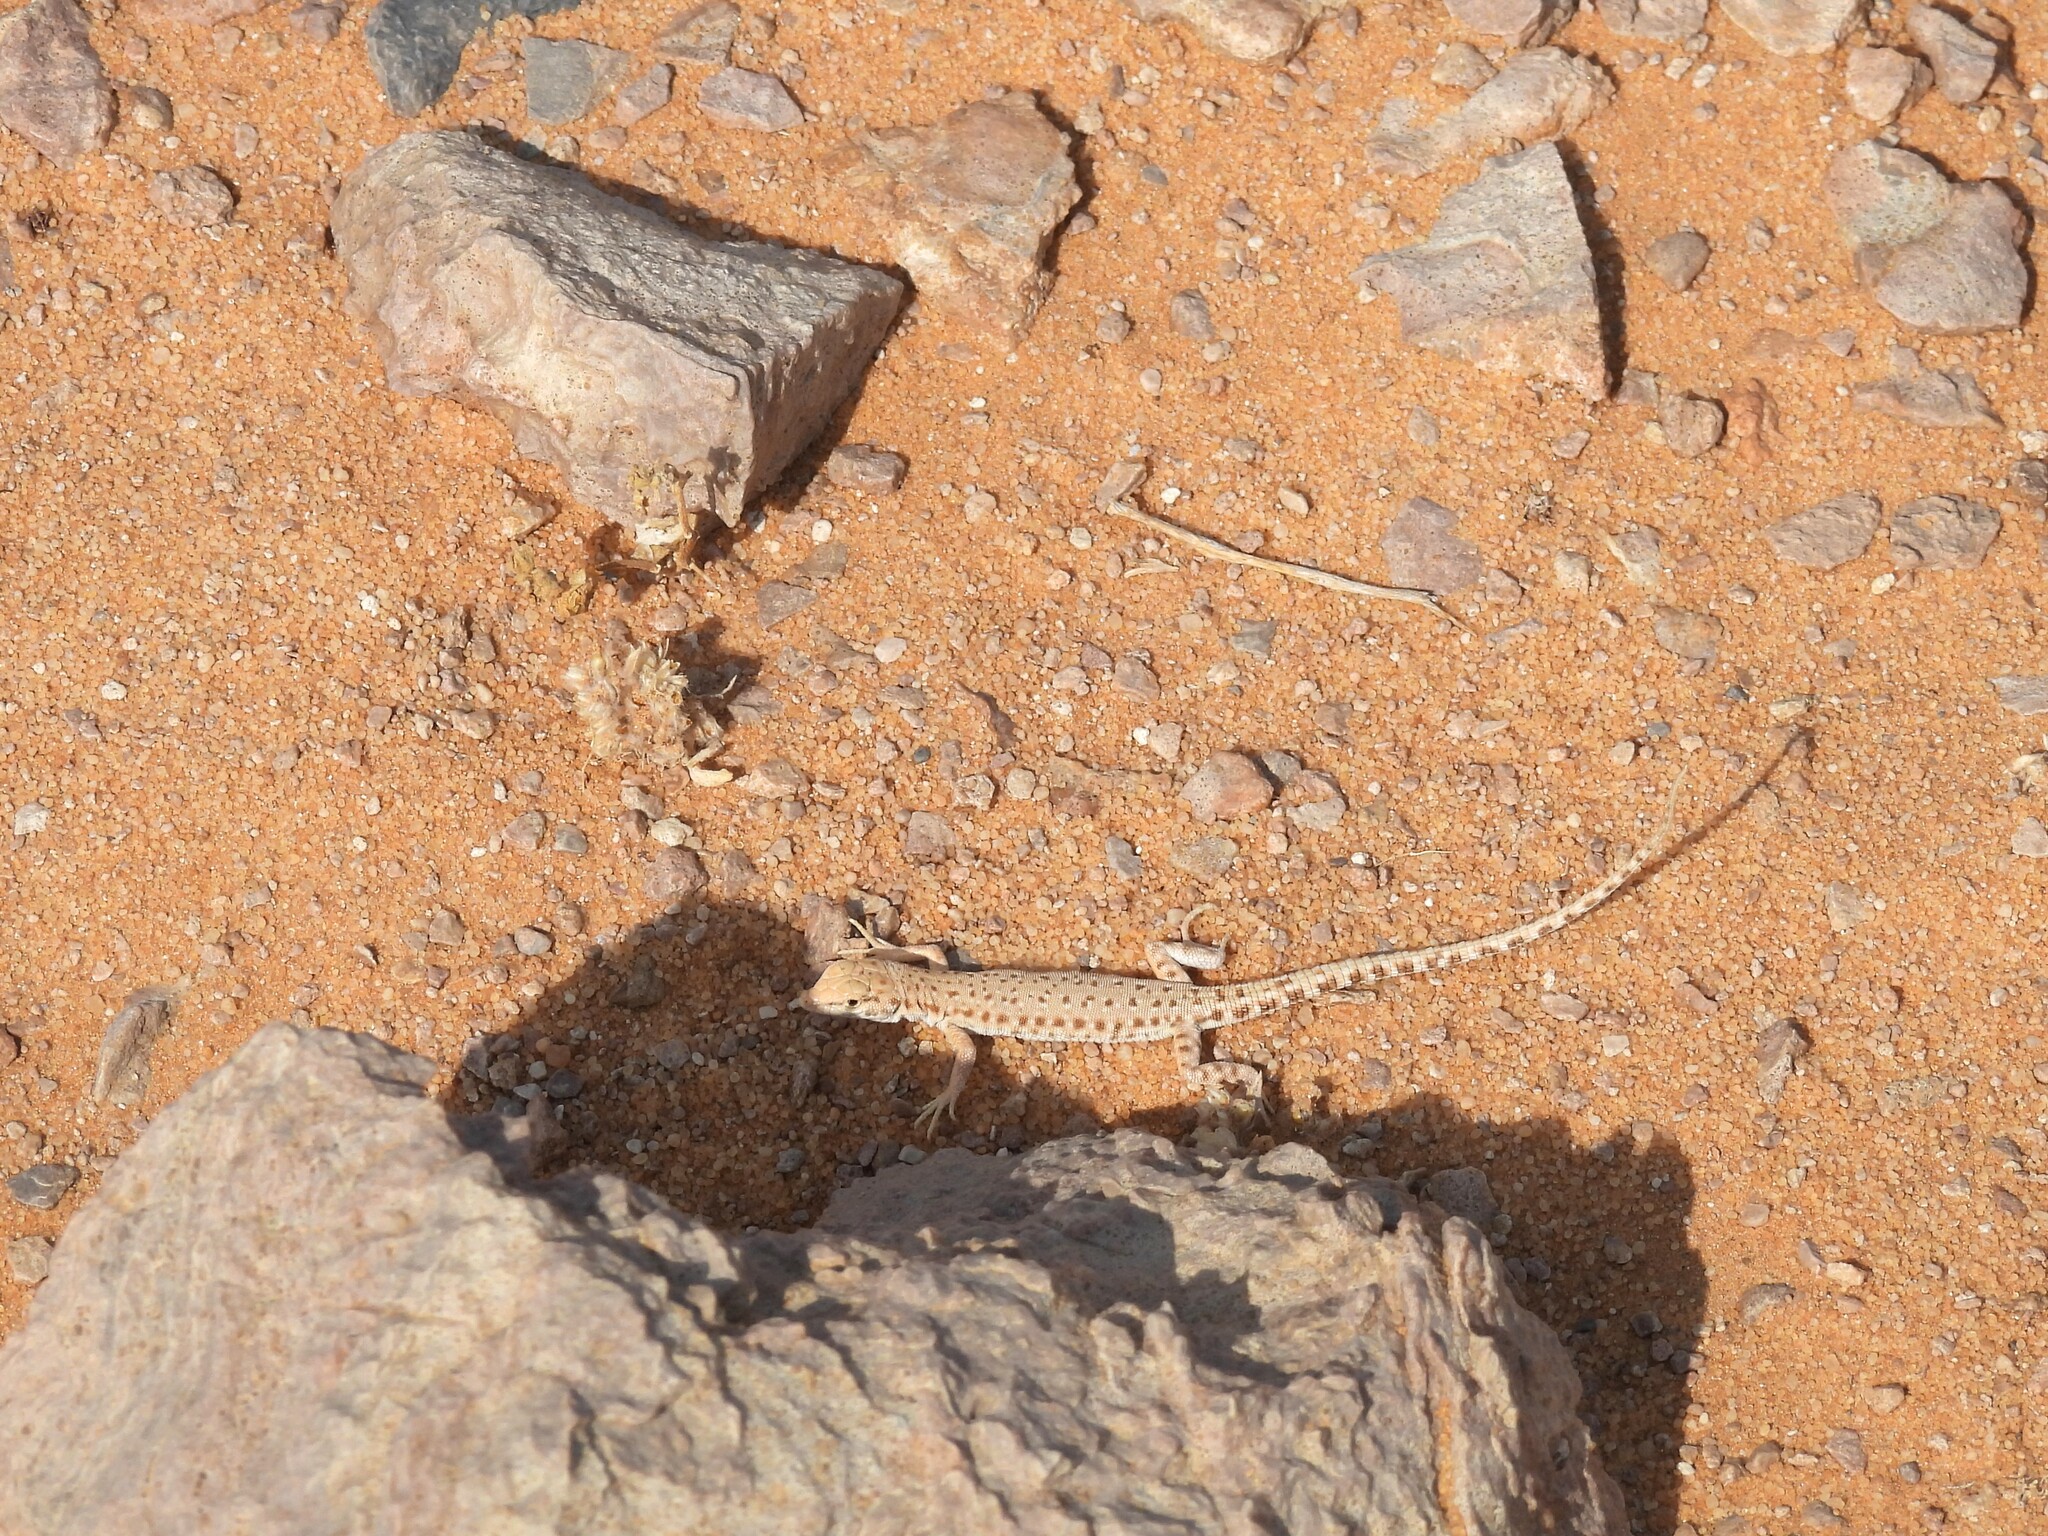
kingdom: Animalia
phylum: Chordata
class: Squamata
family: Lacertidae
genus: Mesalina
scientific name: Mesalina brevirostris
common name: Blanford's short-nosed desert lizard
